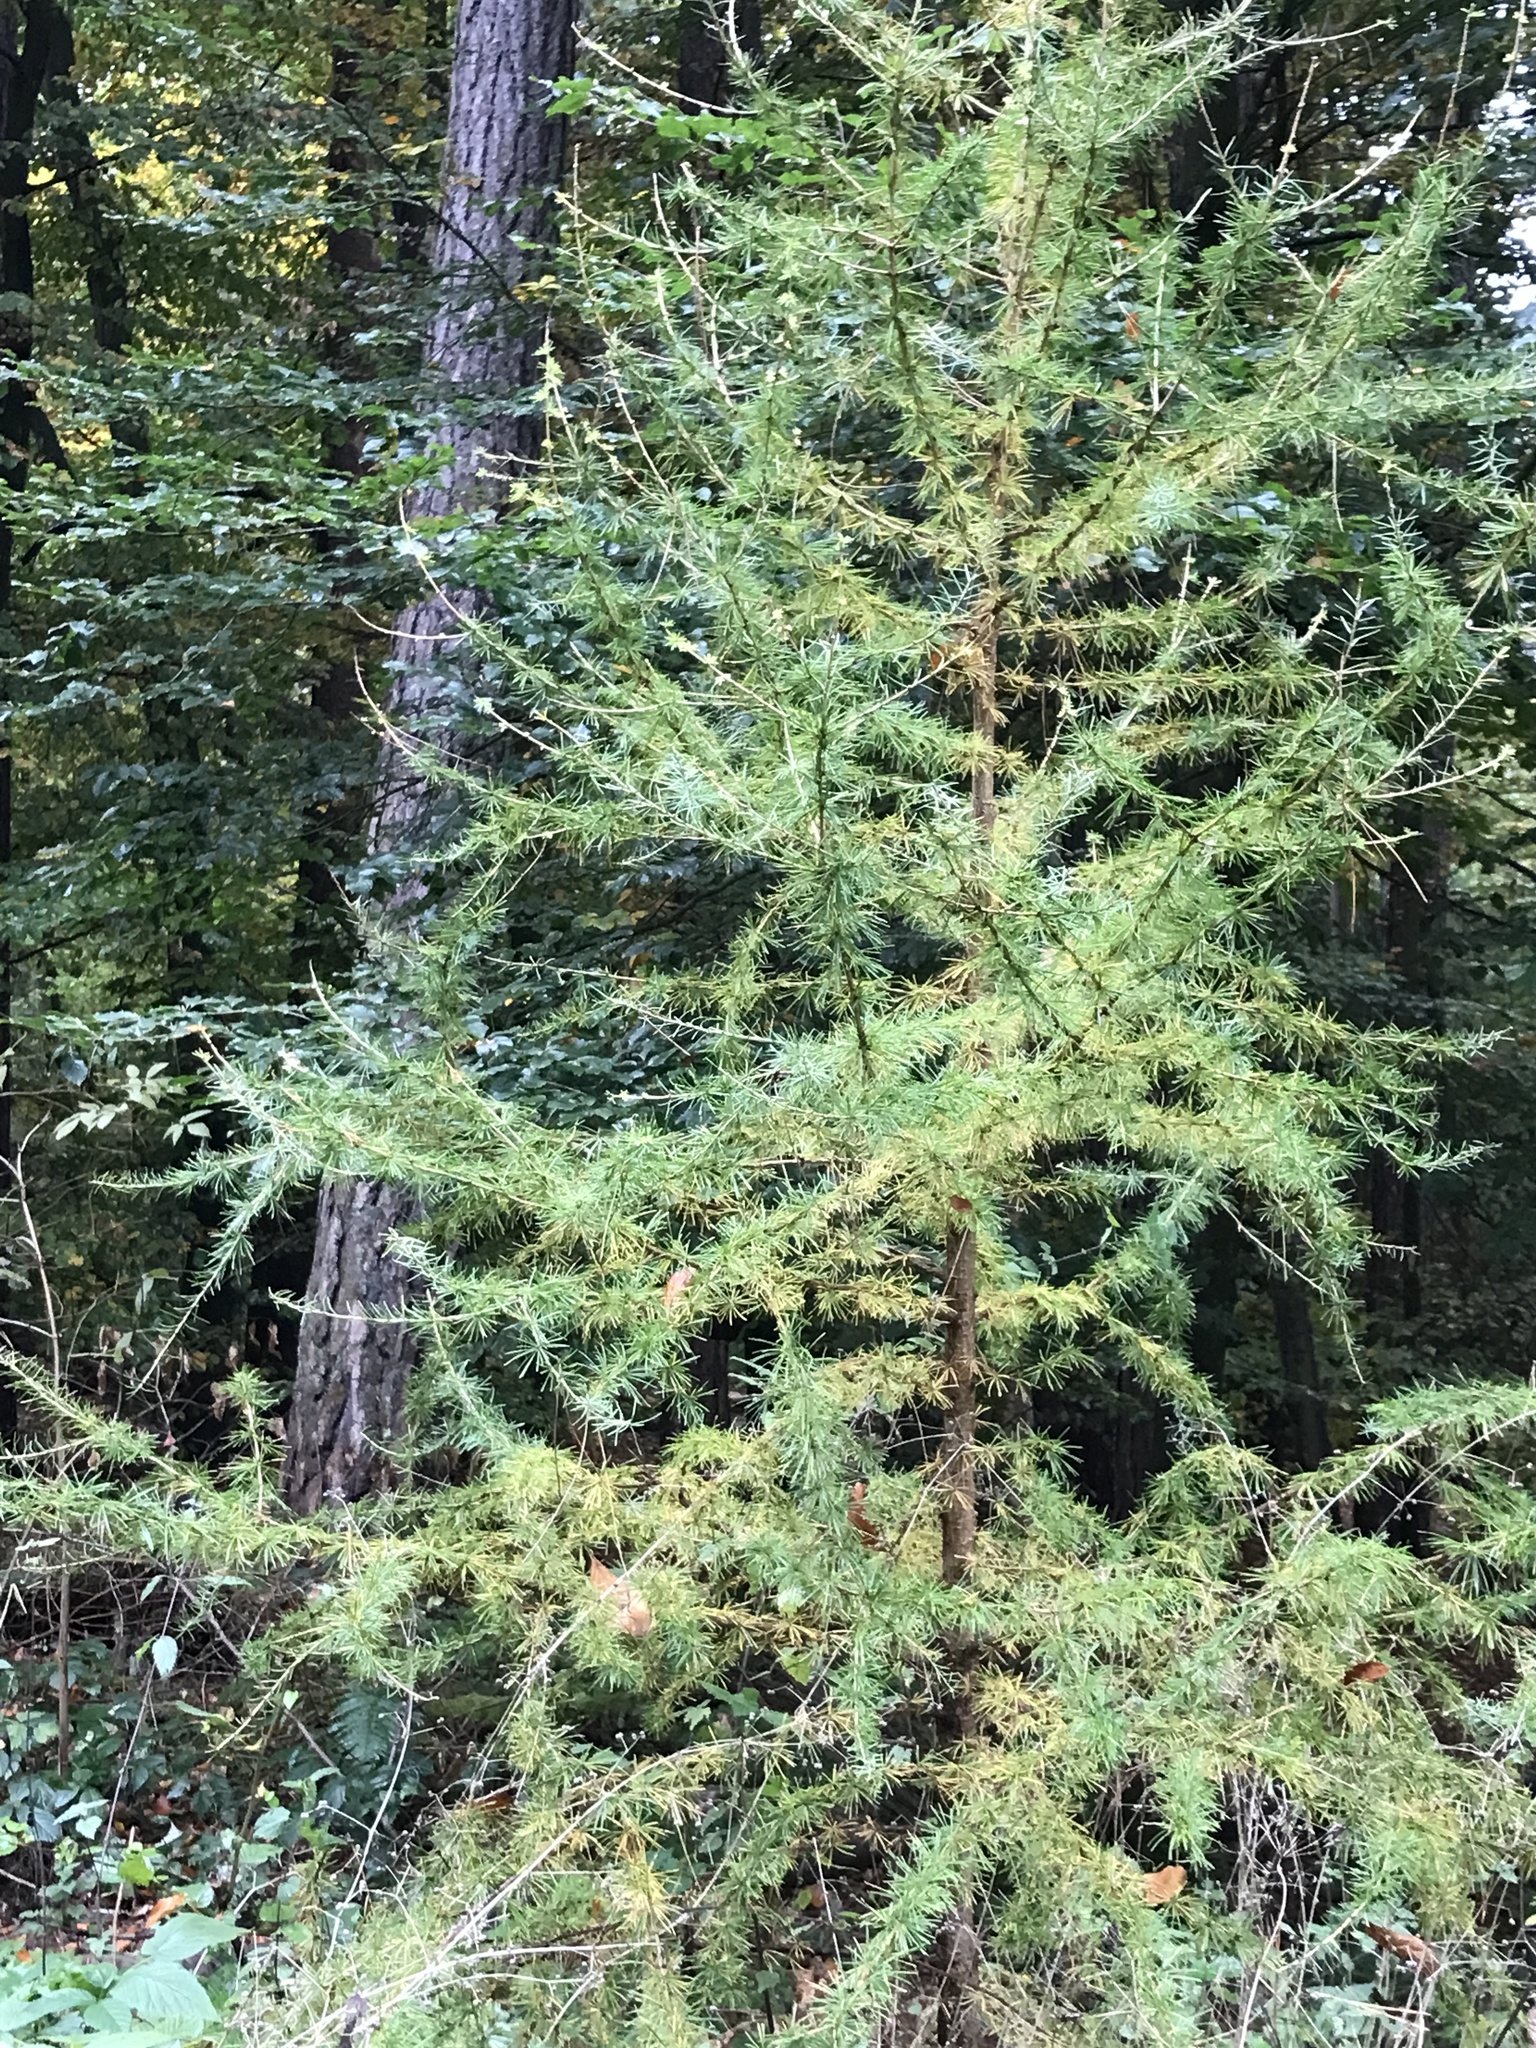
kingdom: Plantae
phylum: Tracheophyta
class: Pinopsida
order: Pinales
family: Pinaceae
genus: Larix
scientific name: Larix decidua
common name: European larch
